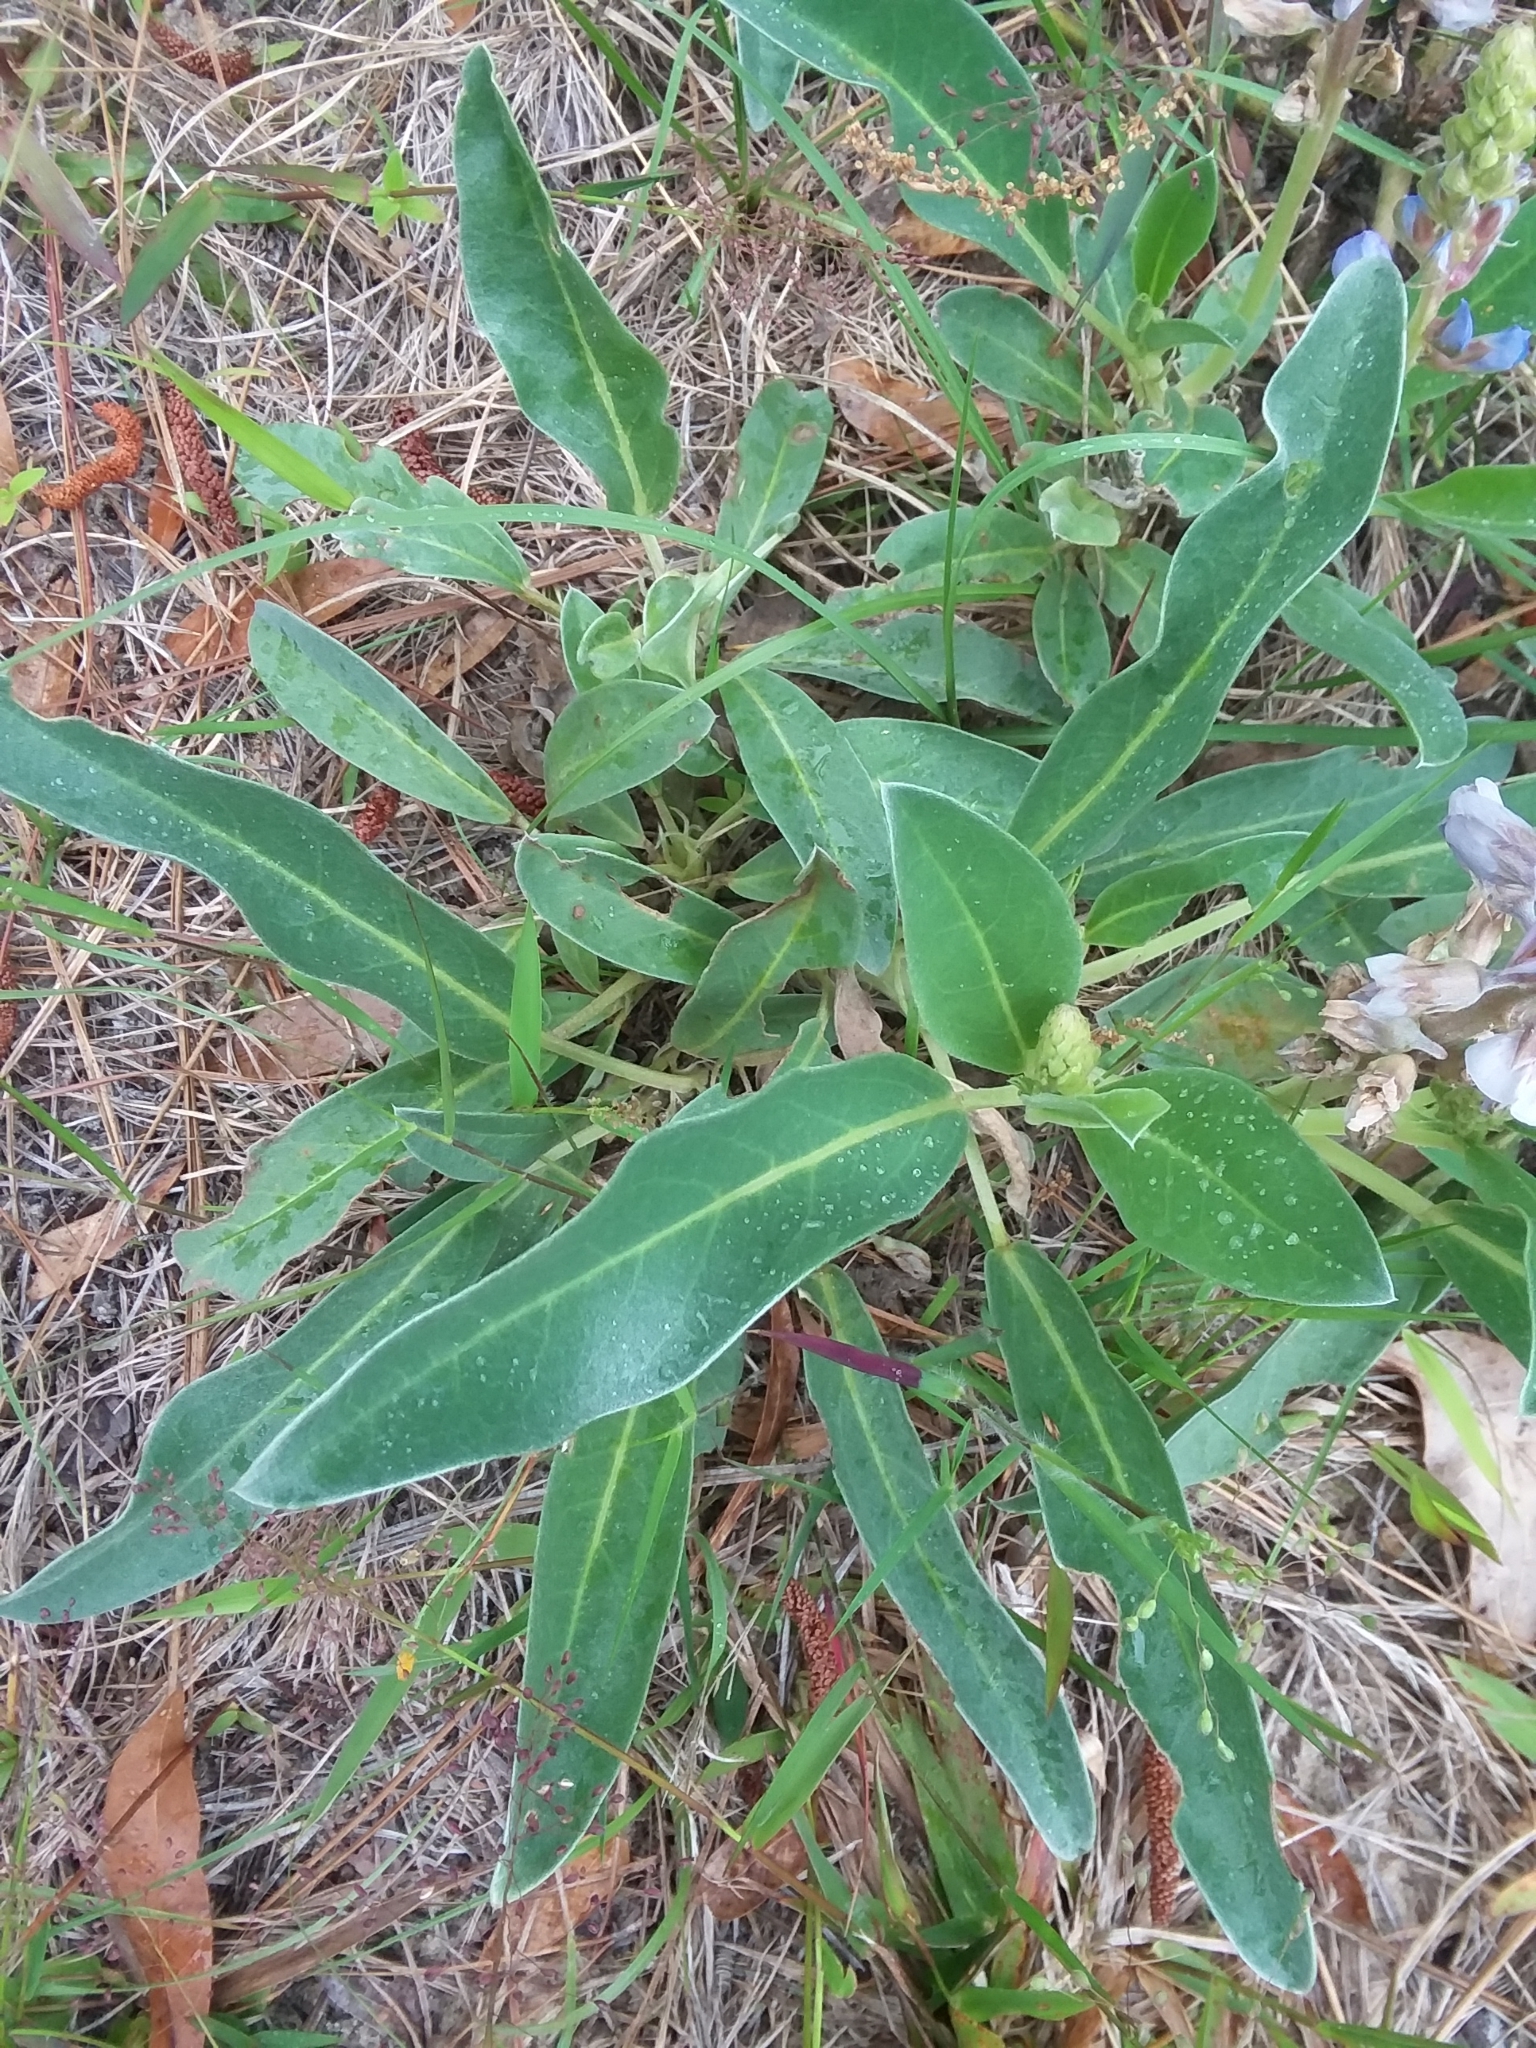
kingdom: Plantae
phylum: Tracheophyta
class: Magnoliopsida
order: Fabales
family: Fabaceae
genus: Lupinus
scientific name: Lupinus diffusus
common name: Oak ridge lupine
